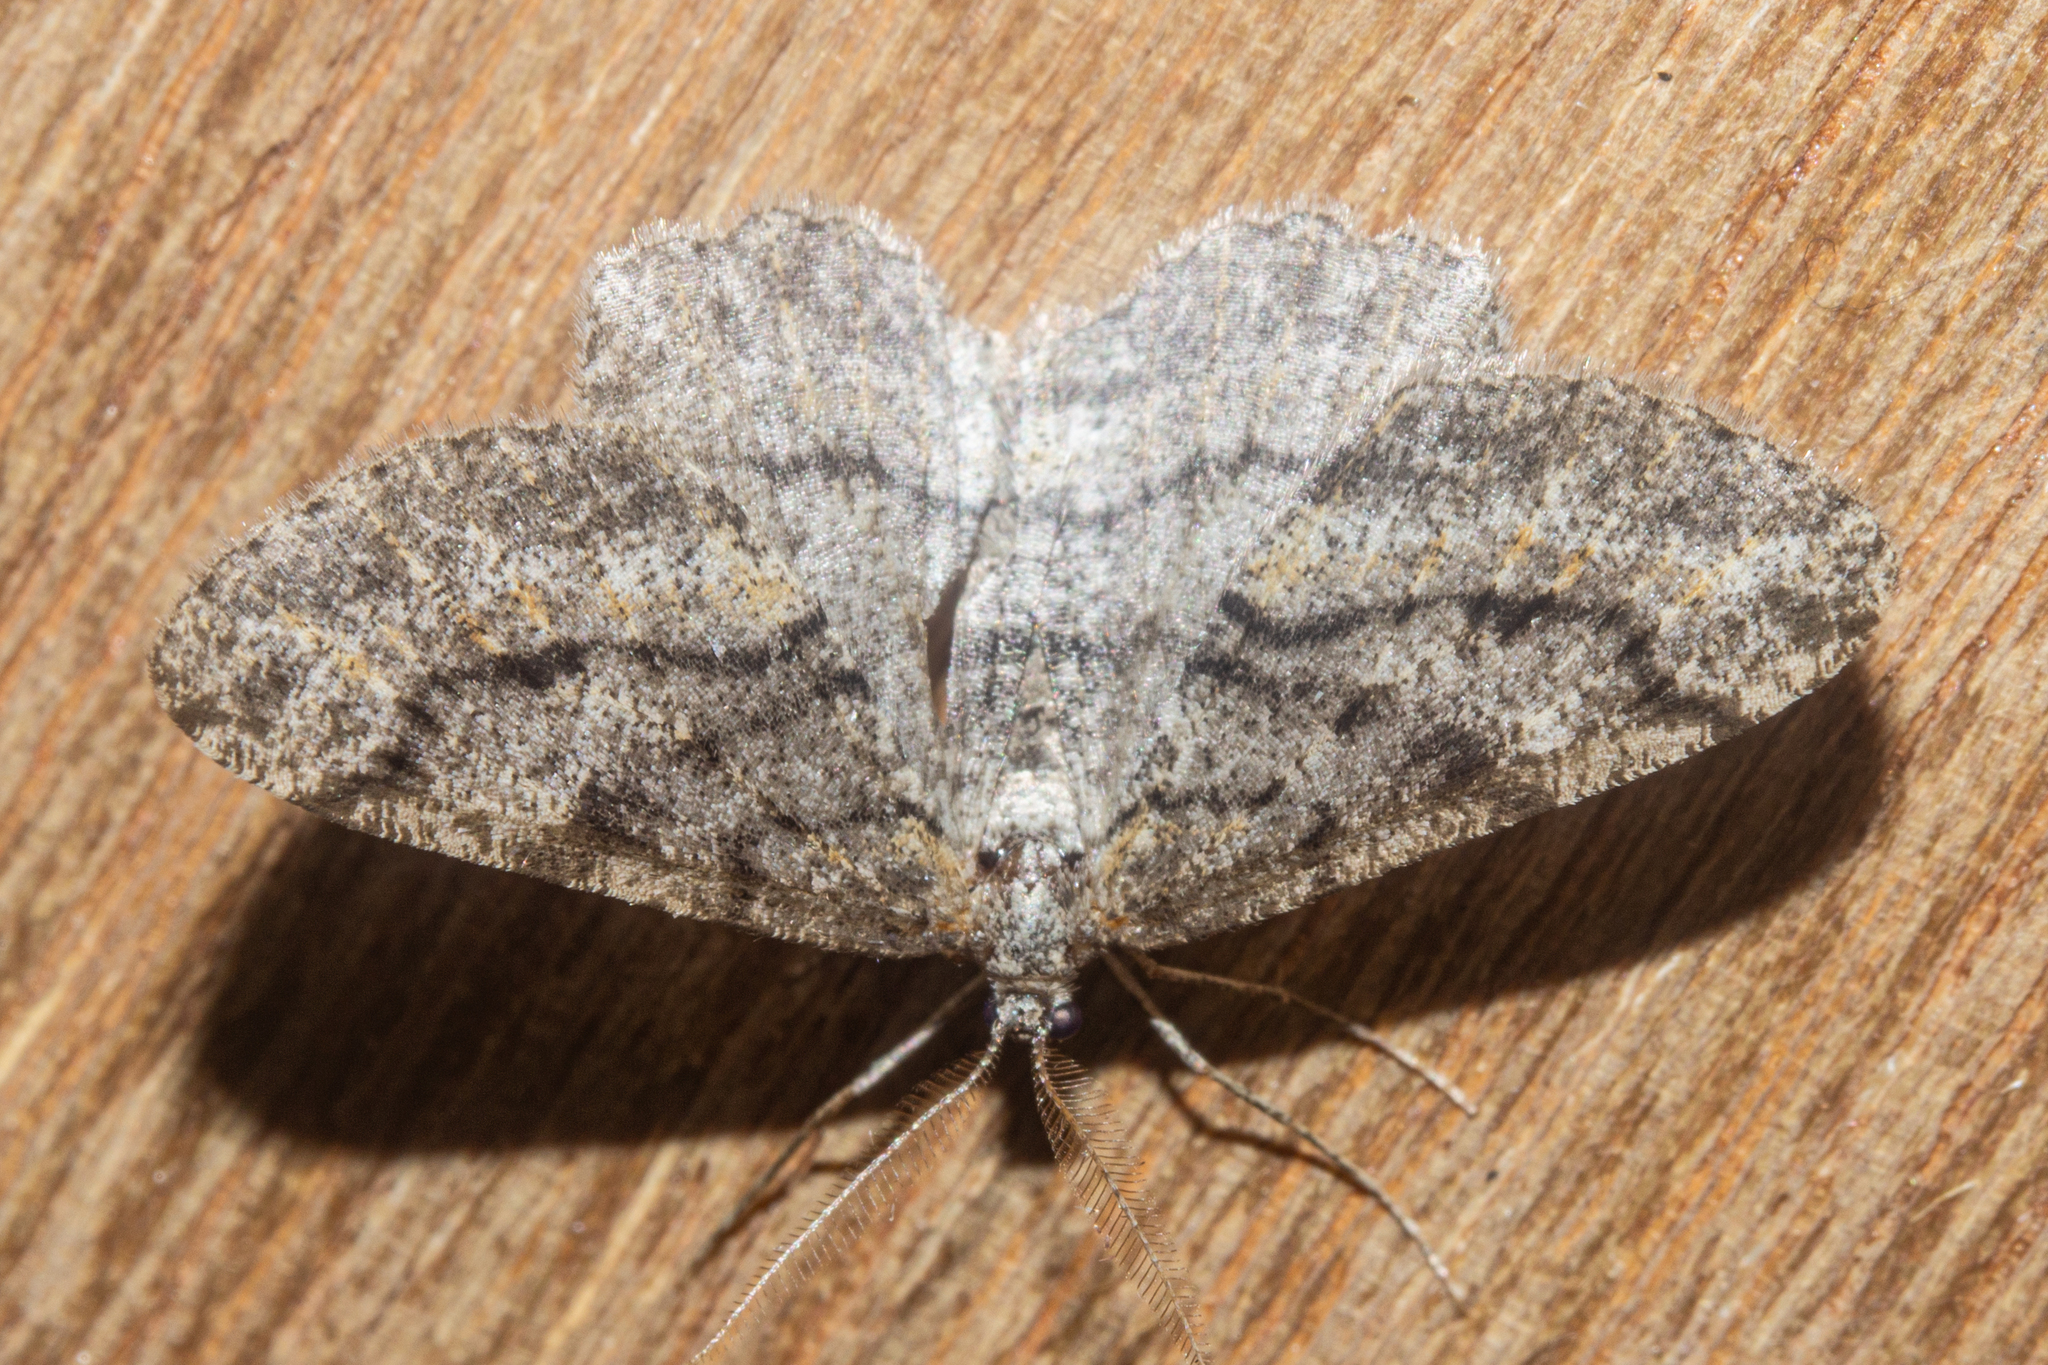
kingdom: Animalia
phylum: Arthropoda
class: Insecta
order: Lepidoptera
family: Geometridae
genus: Zermizinga
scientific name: Zermizinga indocilisaria
